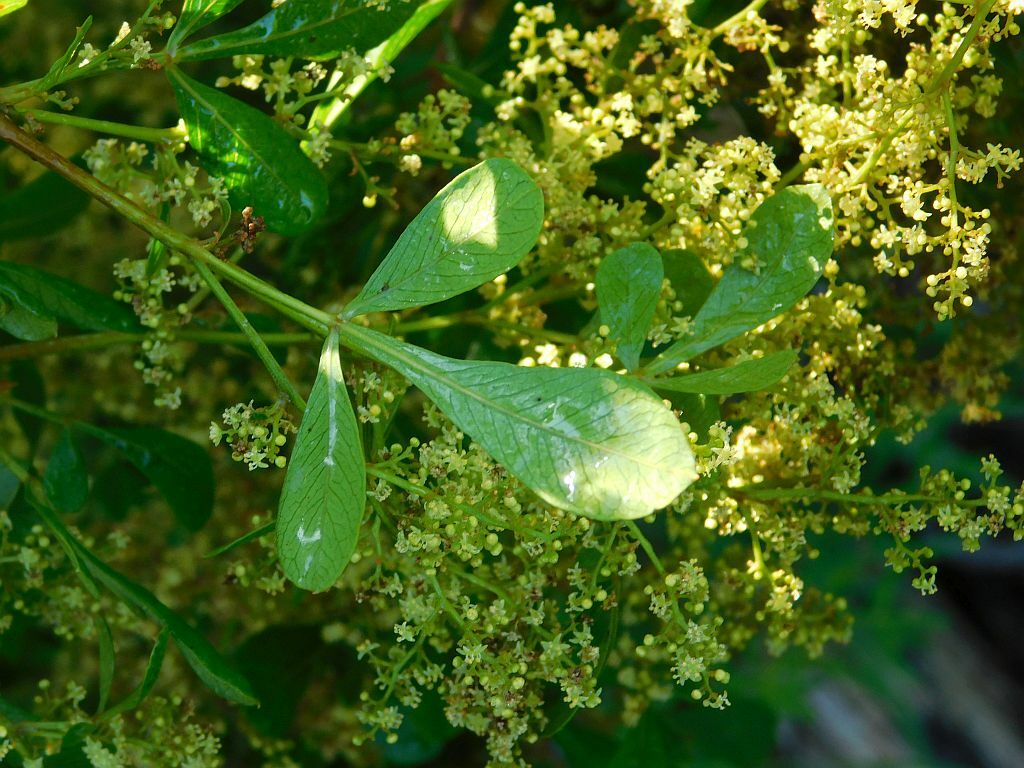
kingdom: Plantae
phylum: Tracheophyta
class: Magnoliopsida
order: Sapindales
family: Anacardiaceae
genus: Searsia
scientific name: Searsia pallens
